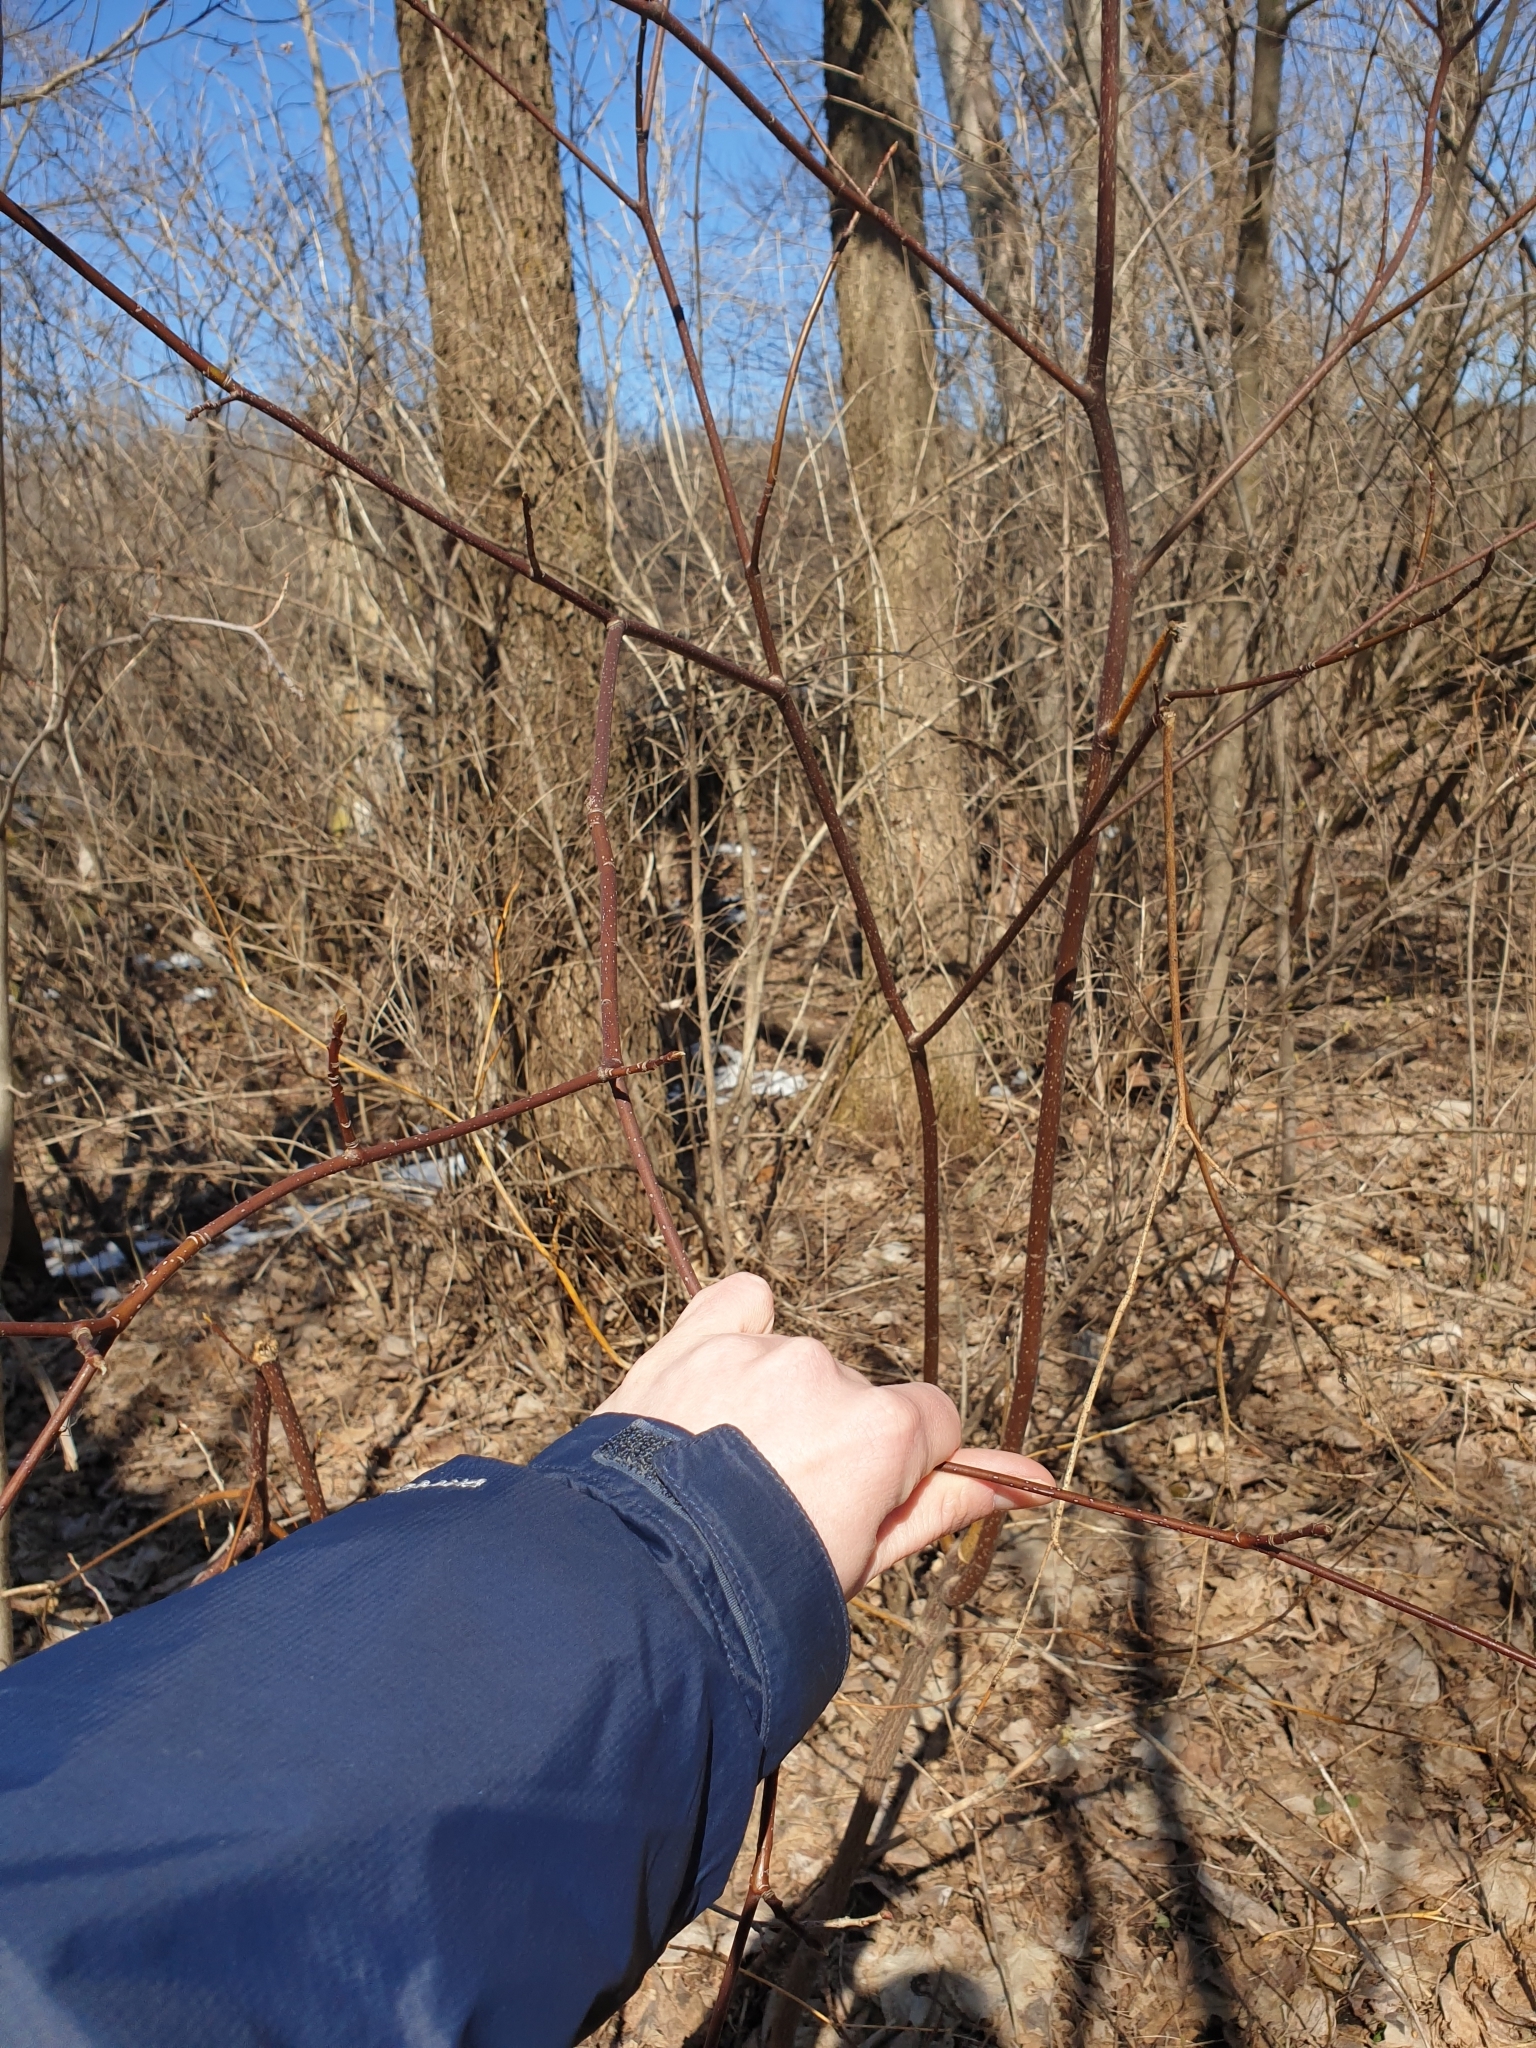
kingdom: Plantae
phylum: Tracheophyta
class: Magnoliopsida
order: Cornales
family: Cornaceae
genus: Cornus
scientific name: Cornus alternifolia
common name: Pagoda dogwood
